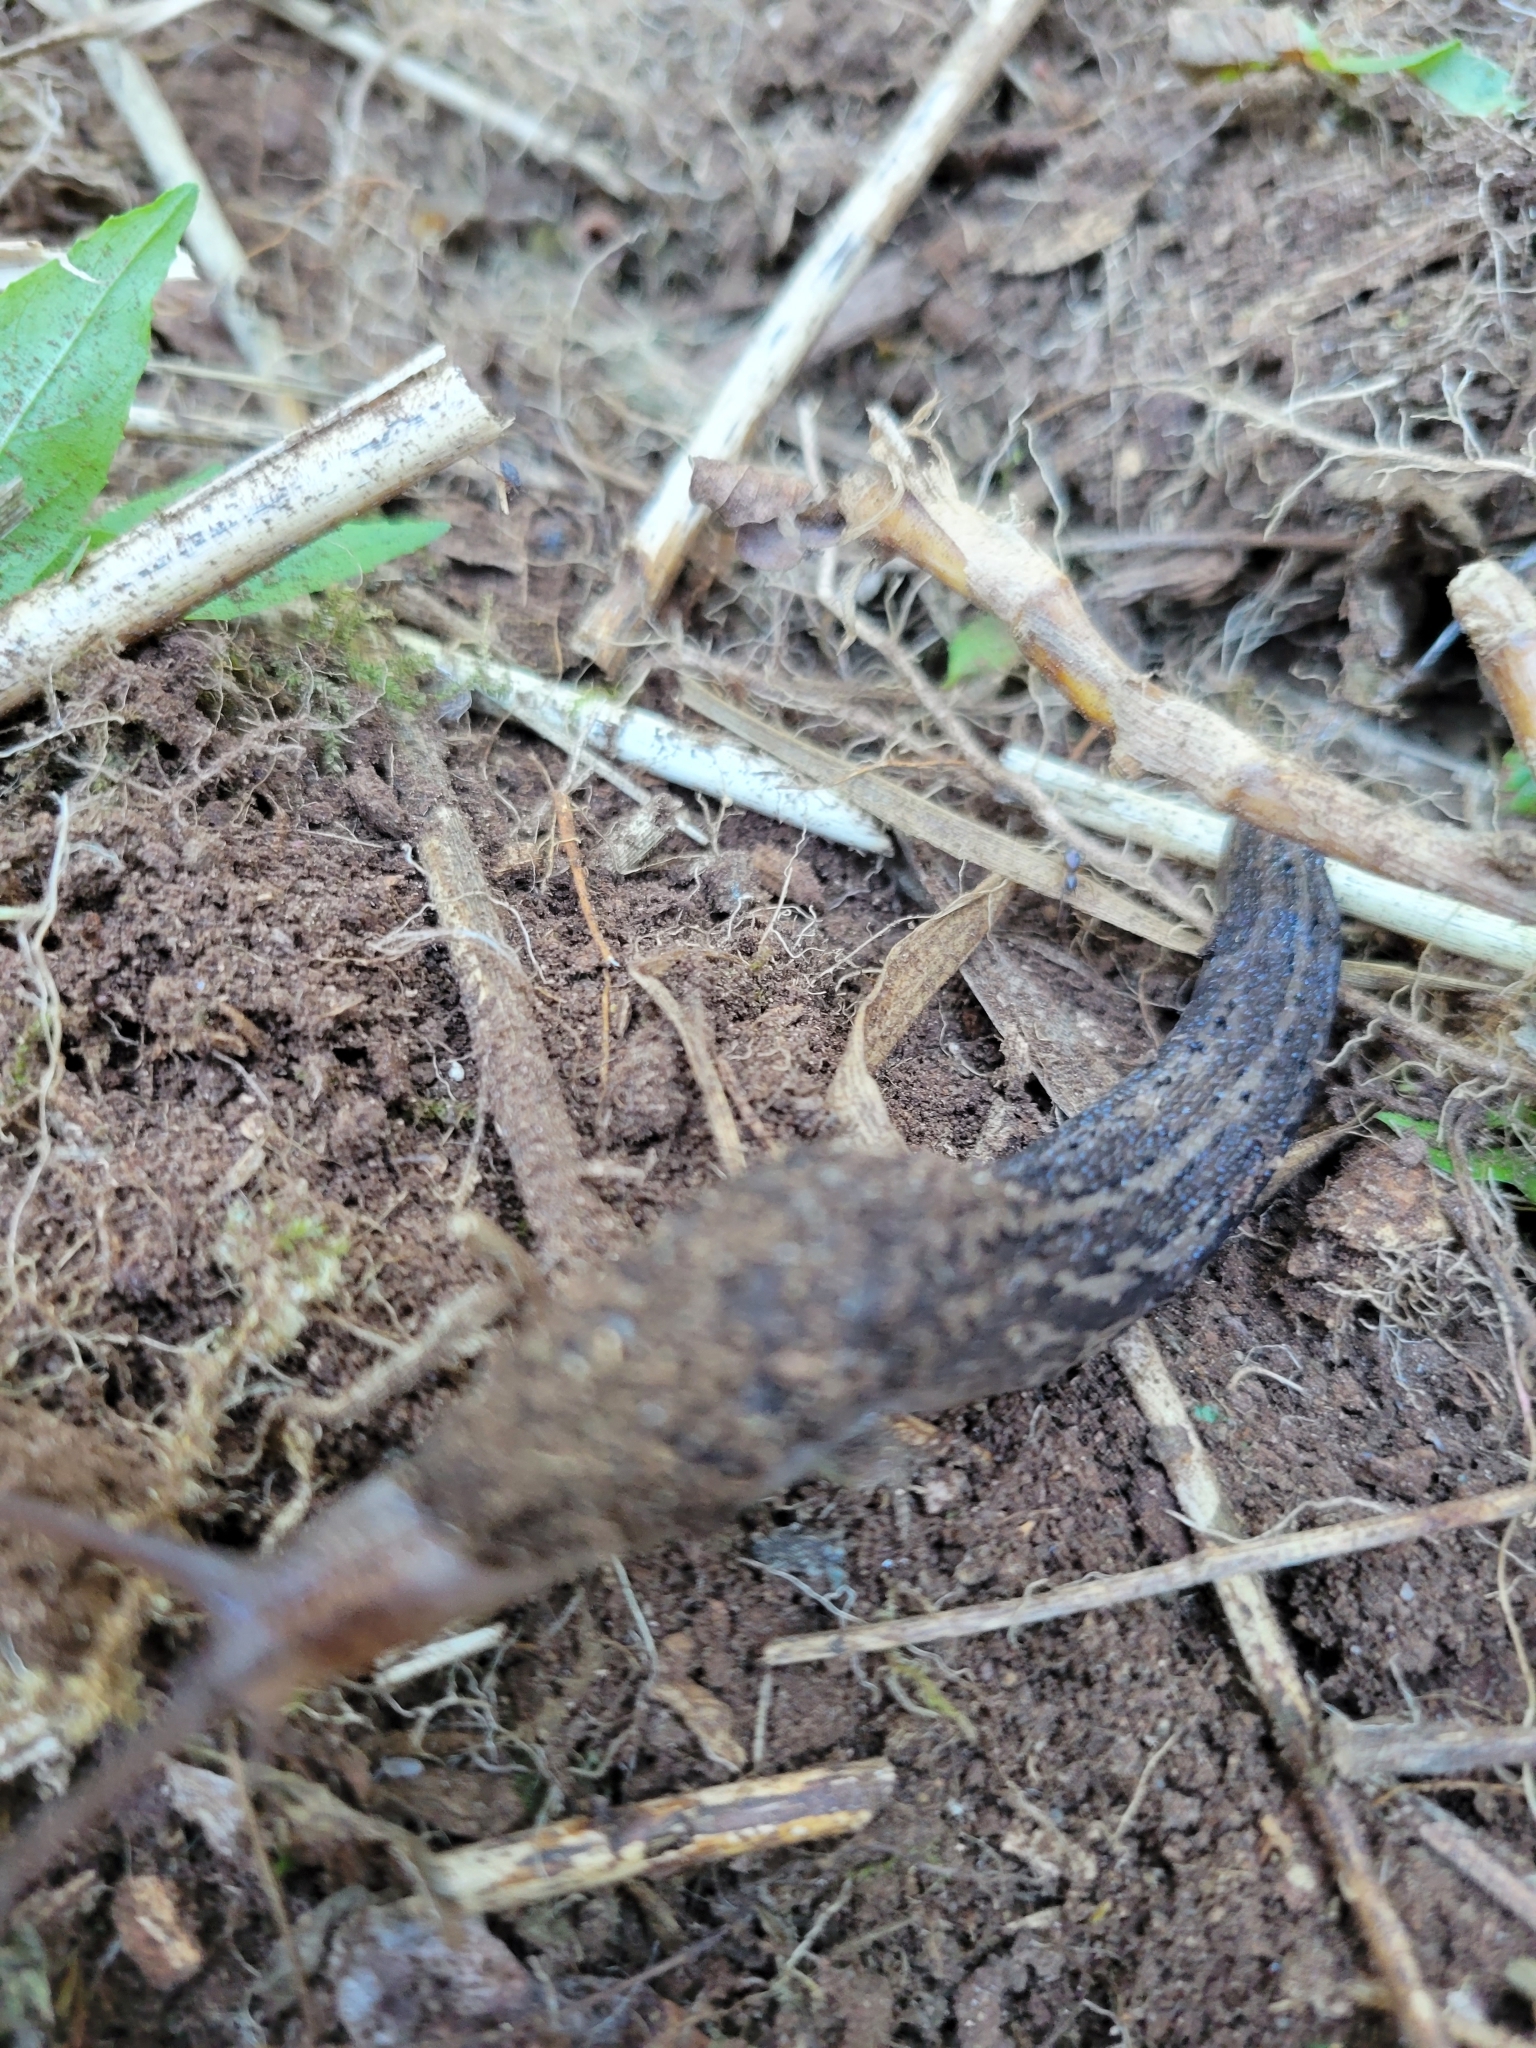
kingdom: Animalia
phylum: Mollusca
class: Gastropoda
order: Stylommatophora
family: Limacidae
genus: Limax
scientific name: Limax maximus
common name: Great grey slug
